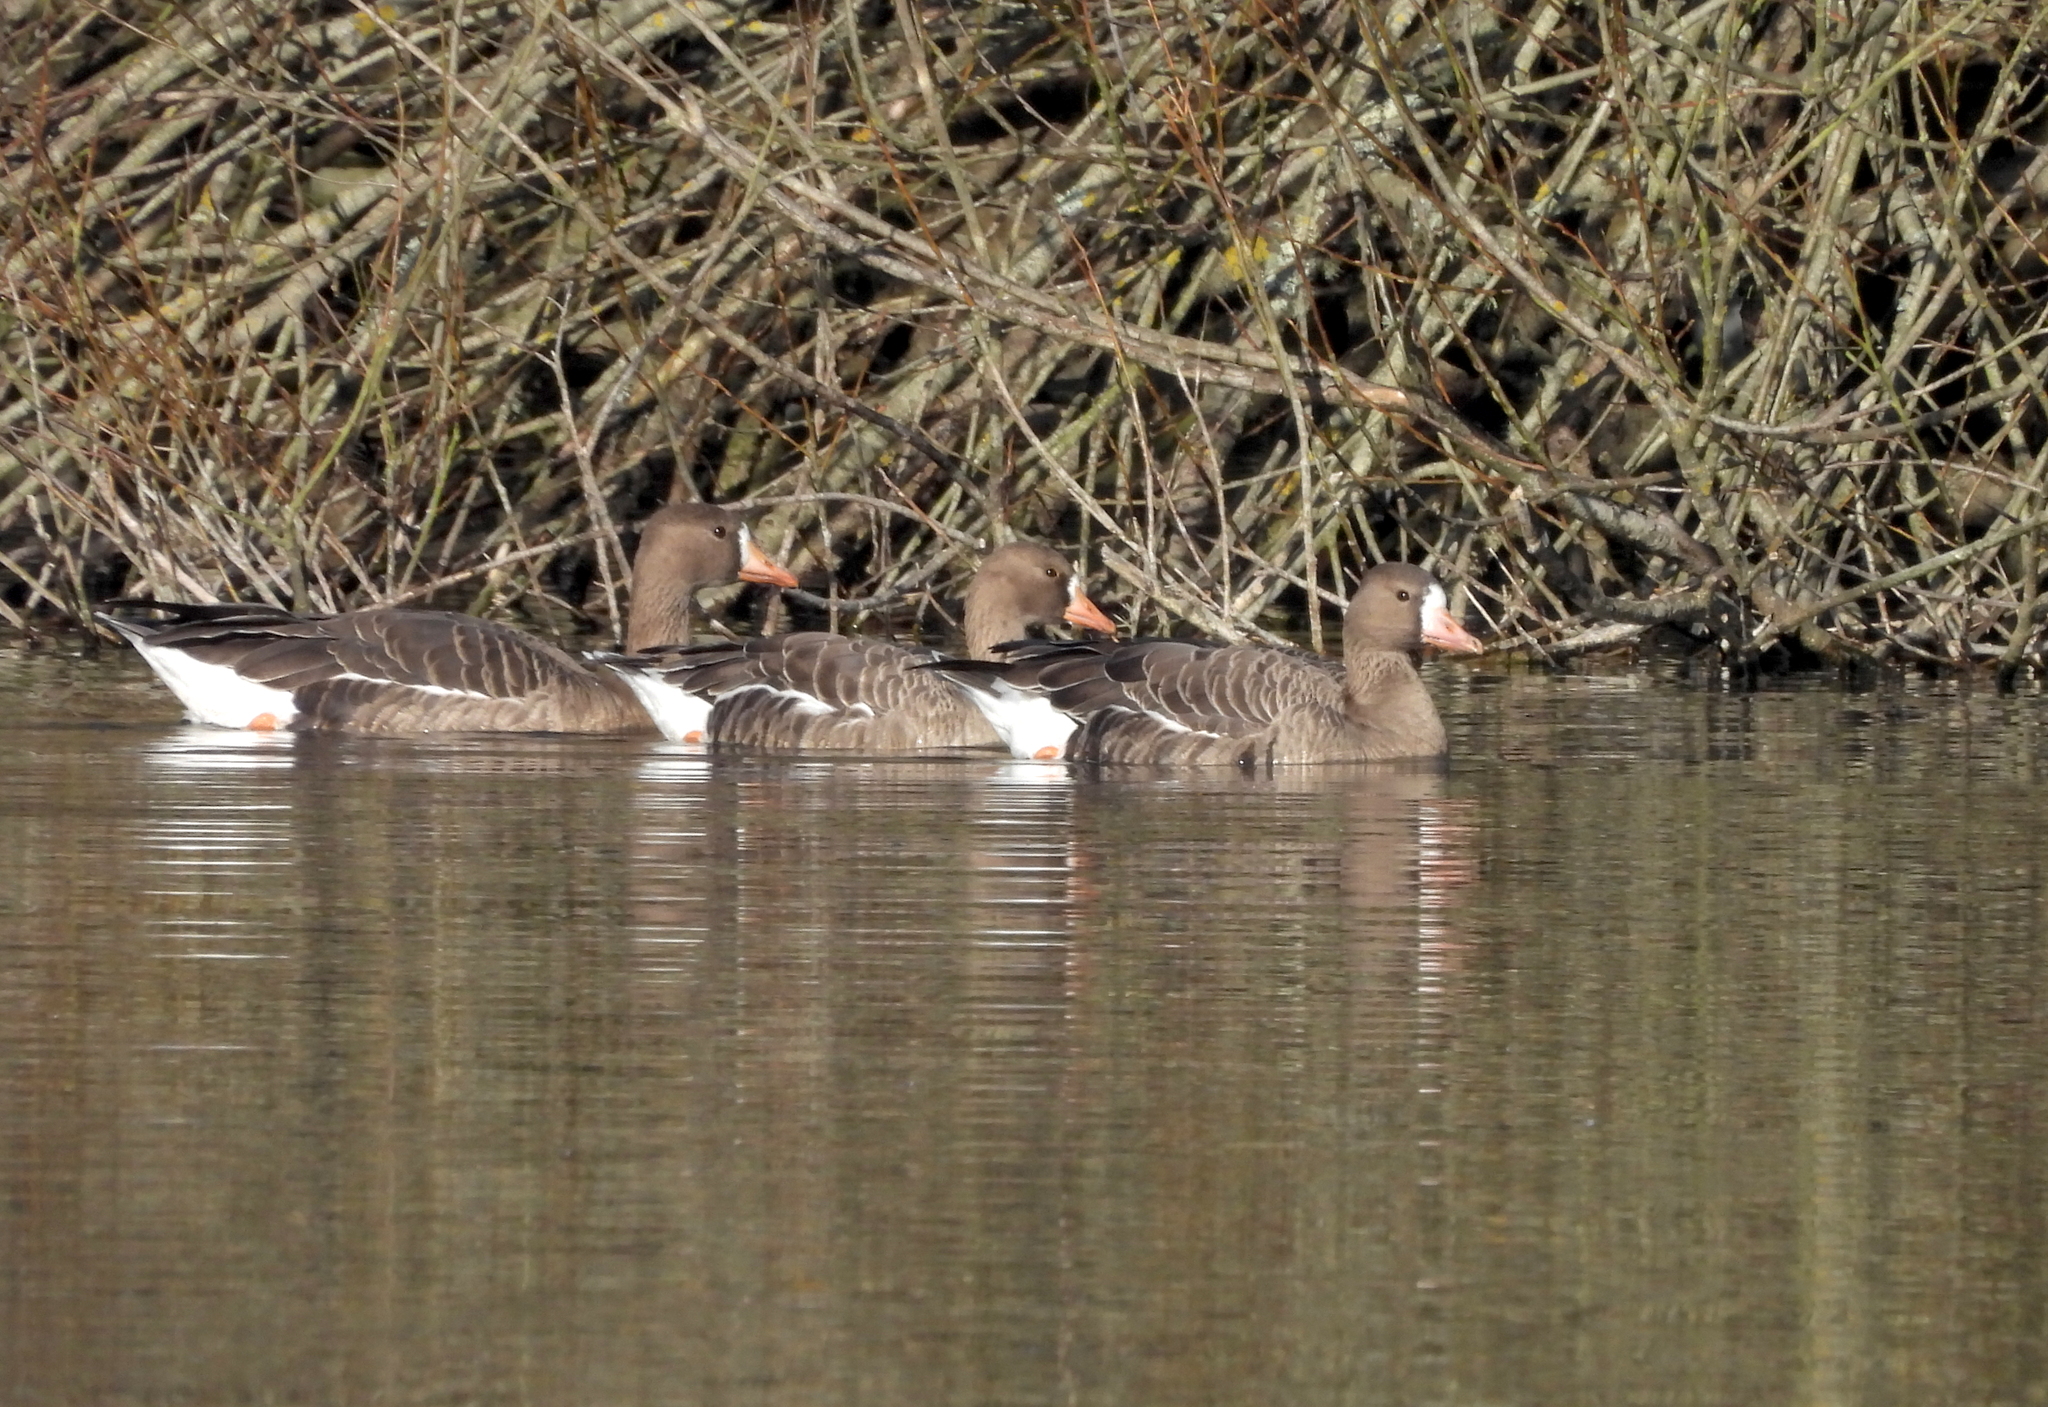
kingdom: Animalia
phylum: Chordata
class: Aves
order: Anseriformes
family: Anatidae
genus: Anser
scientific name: Anser albifrons
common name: Greater white-fronted goose
